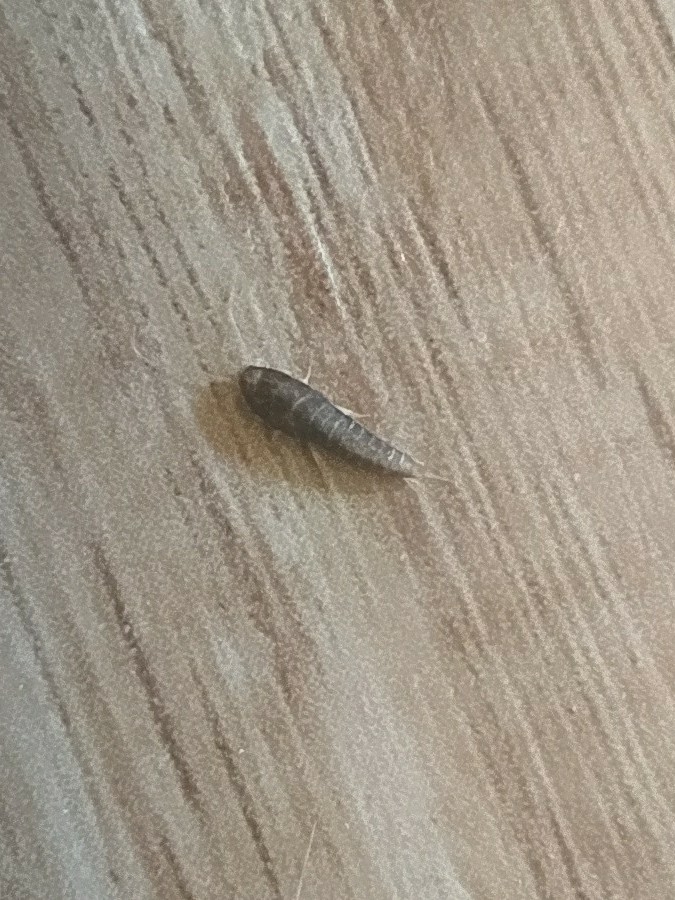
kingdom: Animalia
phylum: Arthropoda
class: Insecta
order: Zygentoma
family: Lepismatidae
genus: Lepisma
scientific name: Lepisma saccharinum
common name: Silverfish
